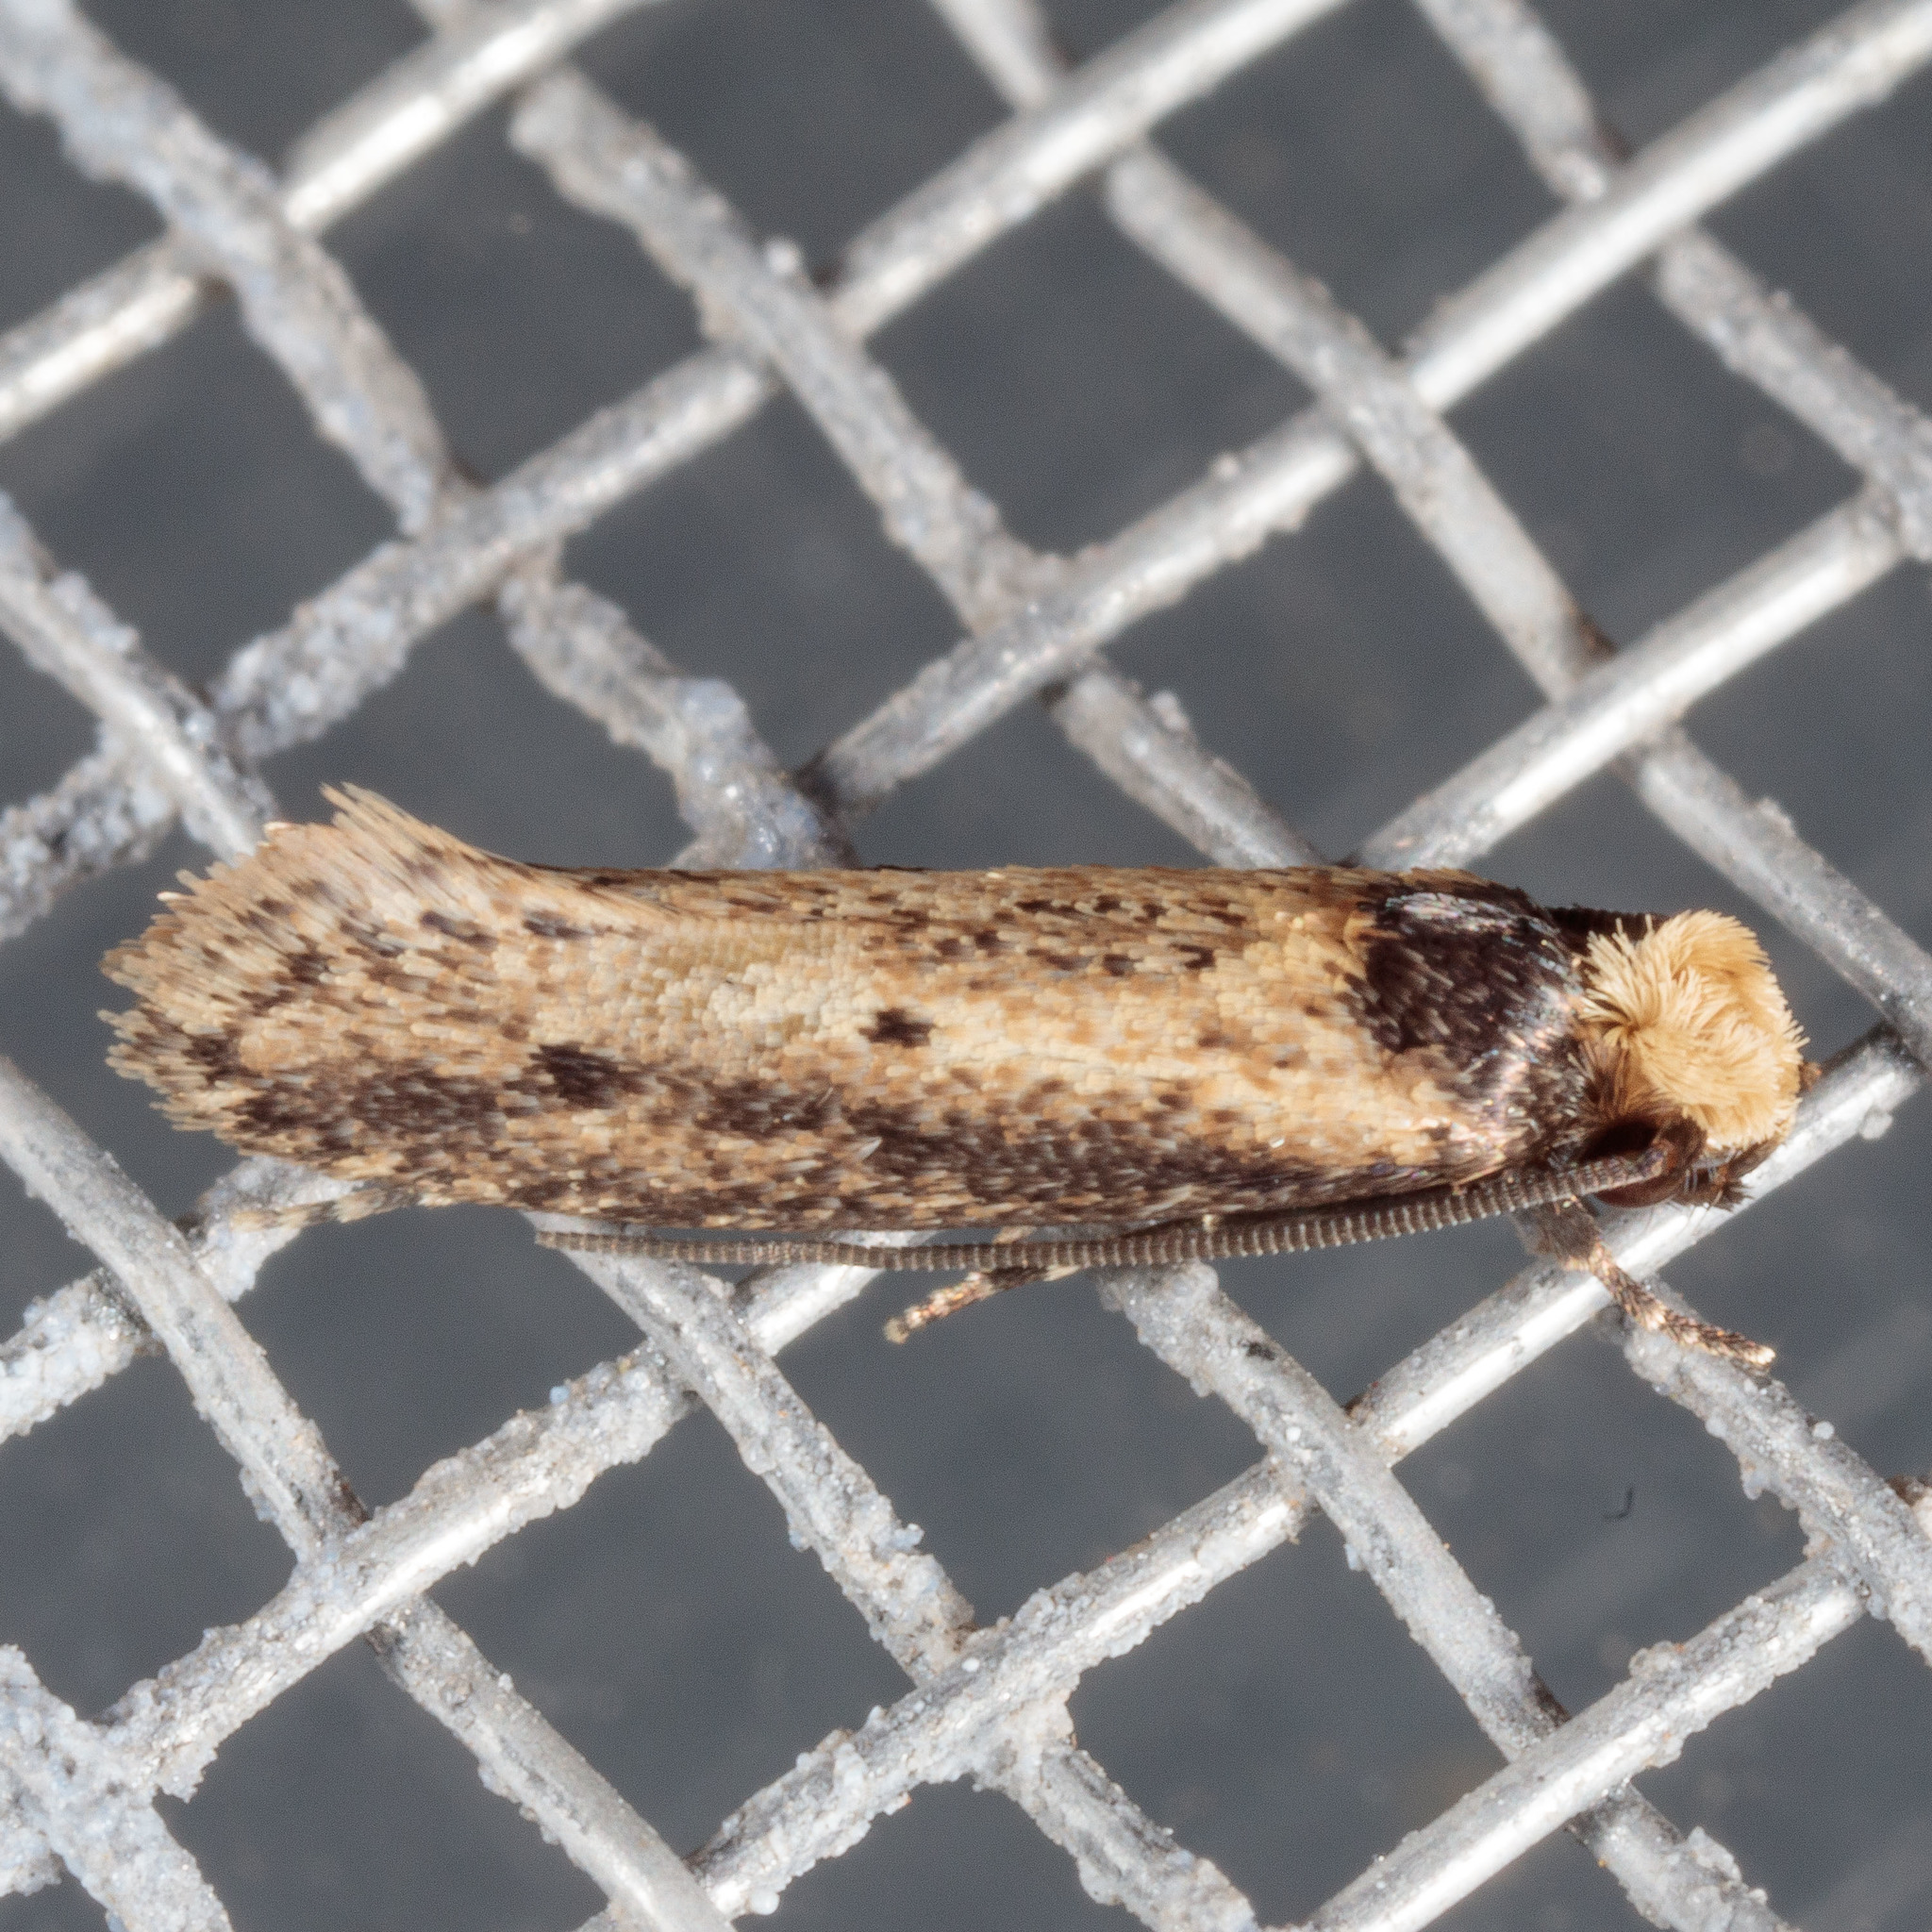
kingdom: Animalia
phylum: Arthropoda
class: Insecta
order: Lepidoptera
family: Tineidae
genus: Tinea
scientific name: Tinea apicimaculella
